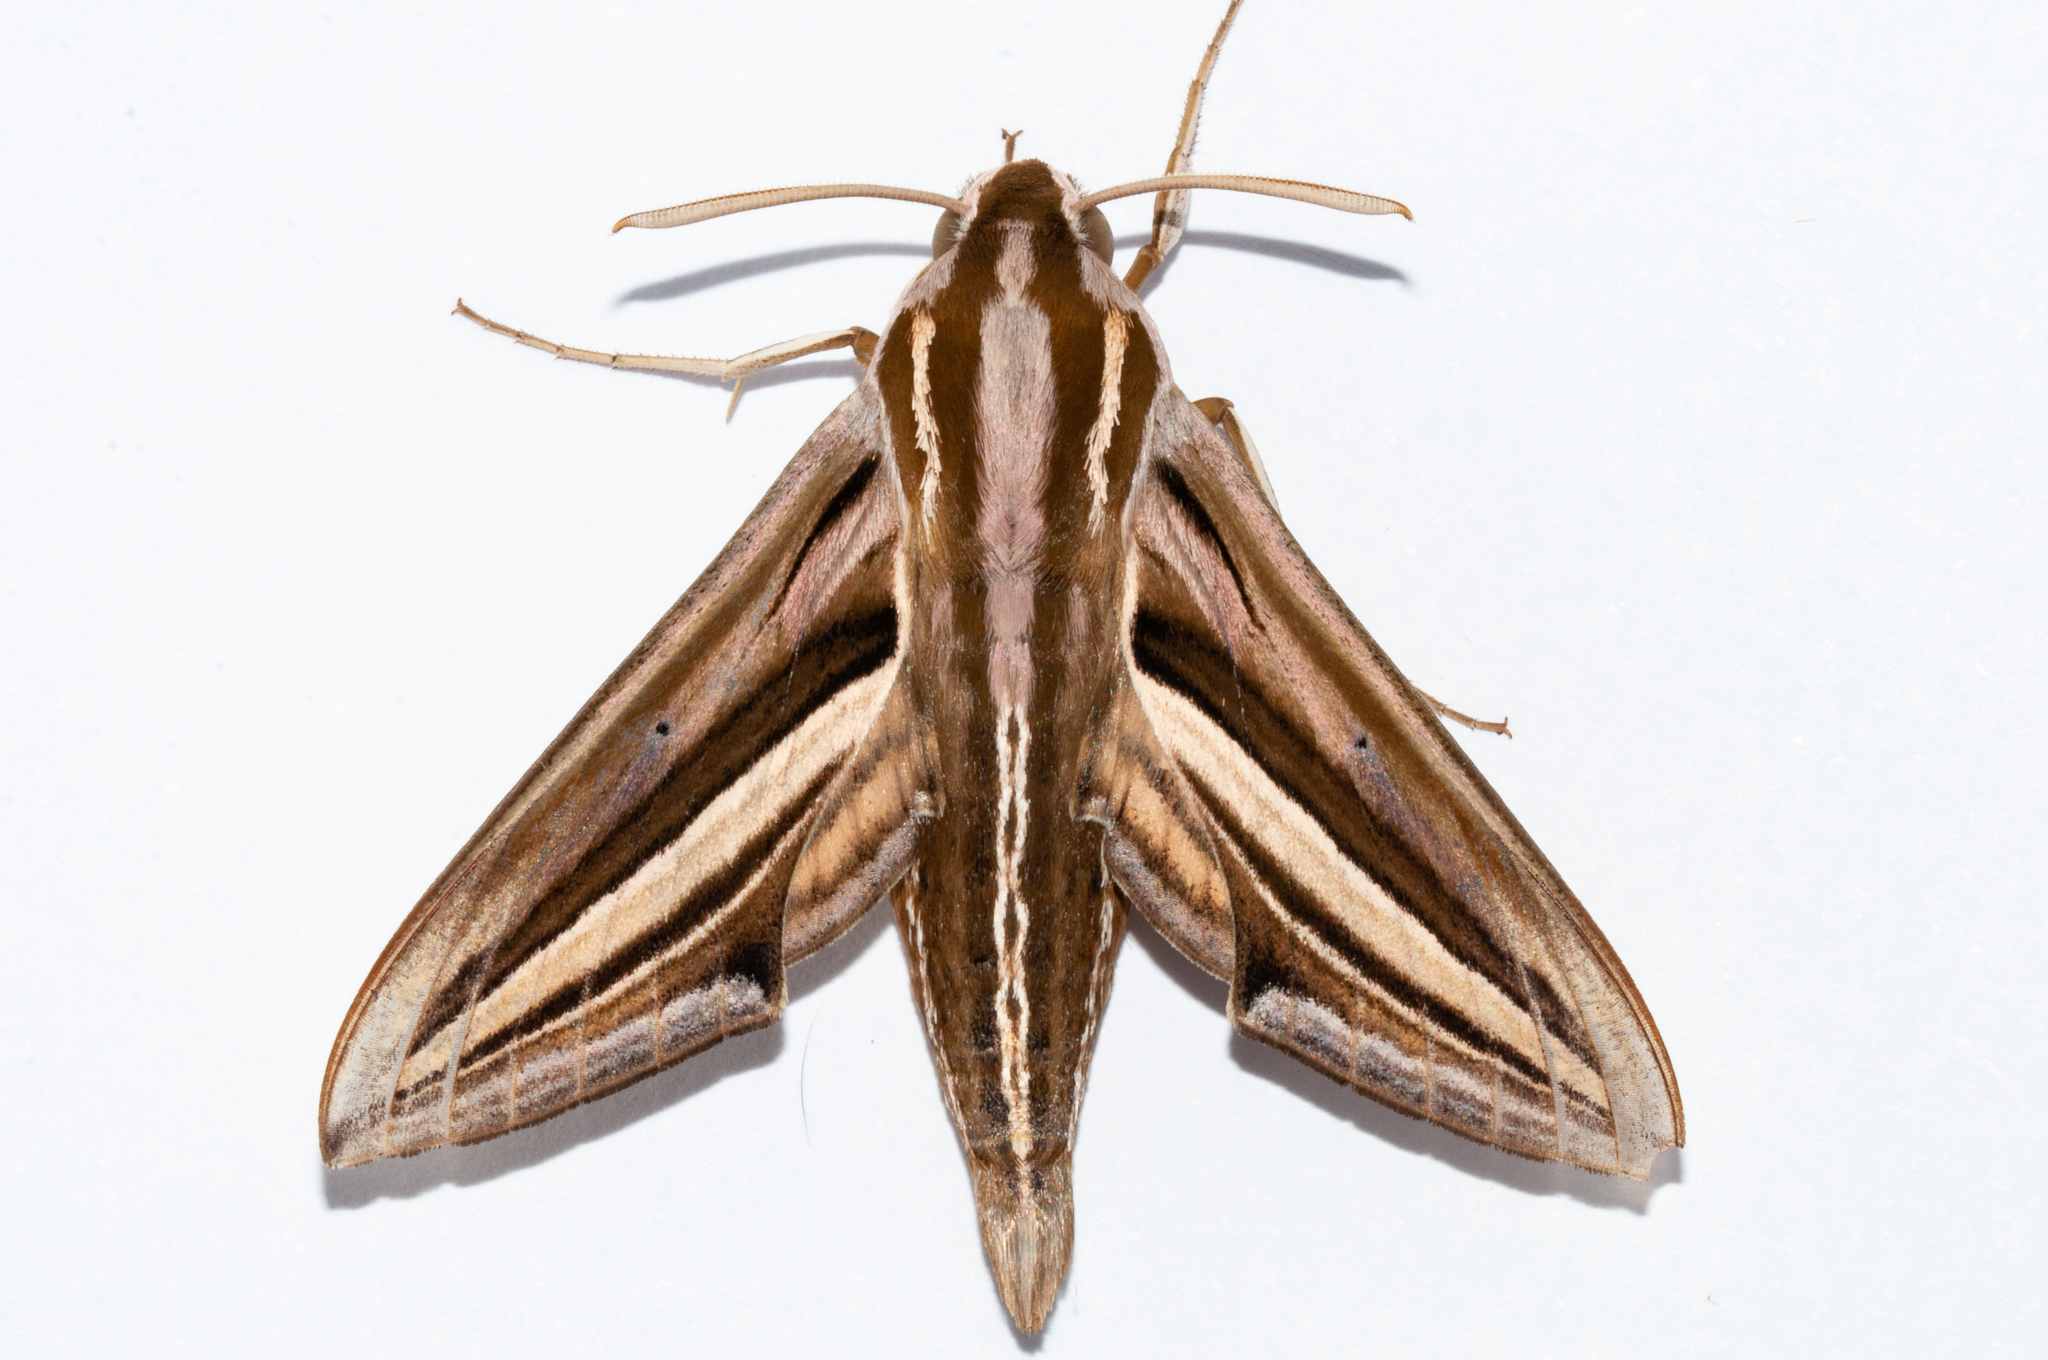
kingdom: Animalia
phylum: Arthropoda
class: Insecta
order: Lepidoptera
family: Sphingidae
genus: Theretra
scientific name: Theretra cajus
